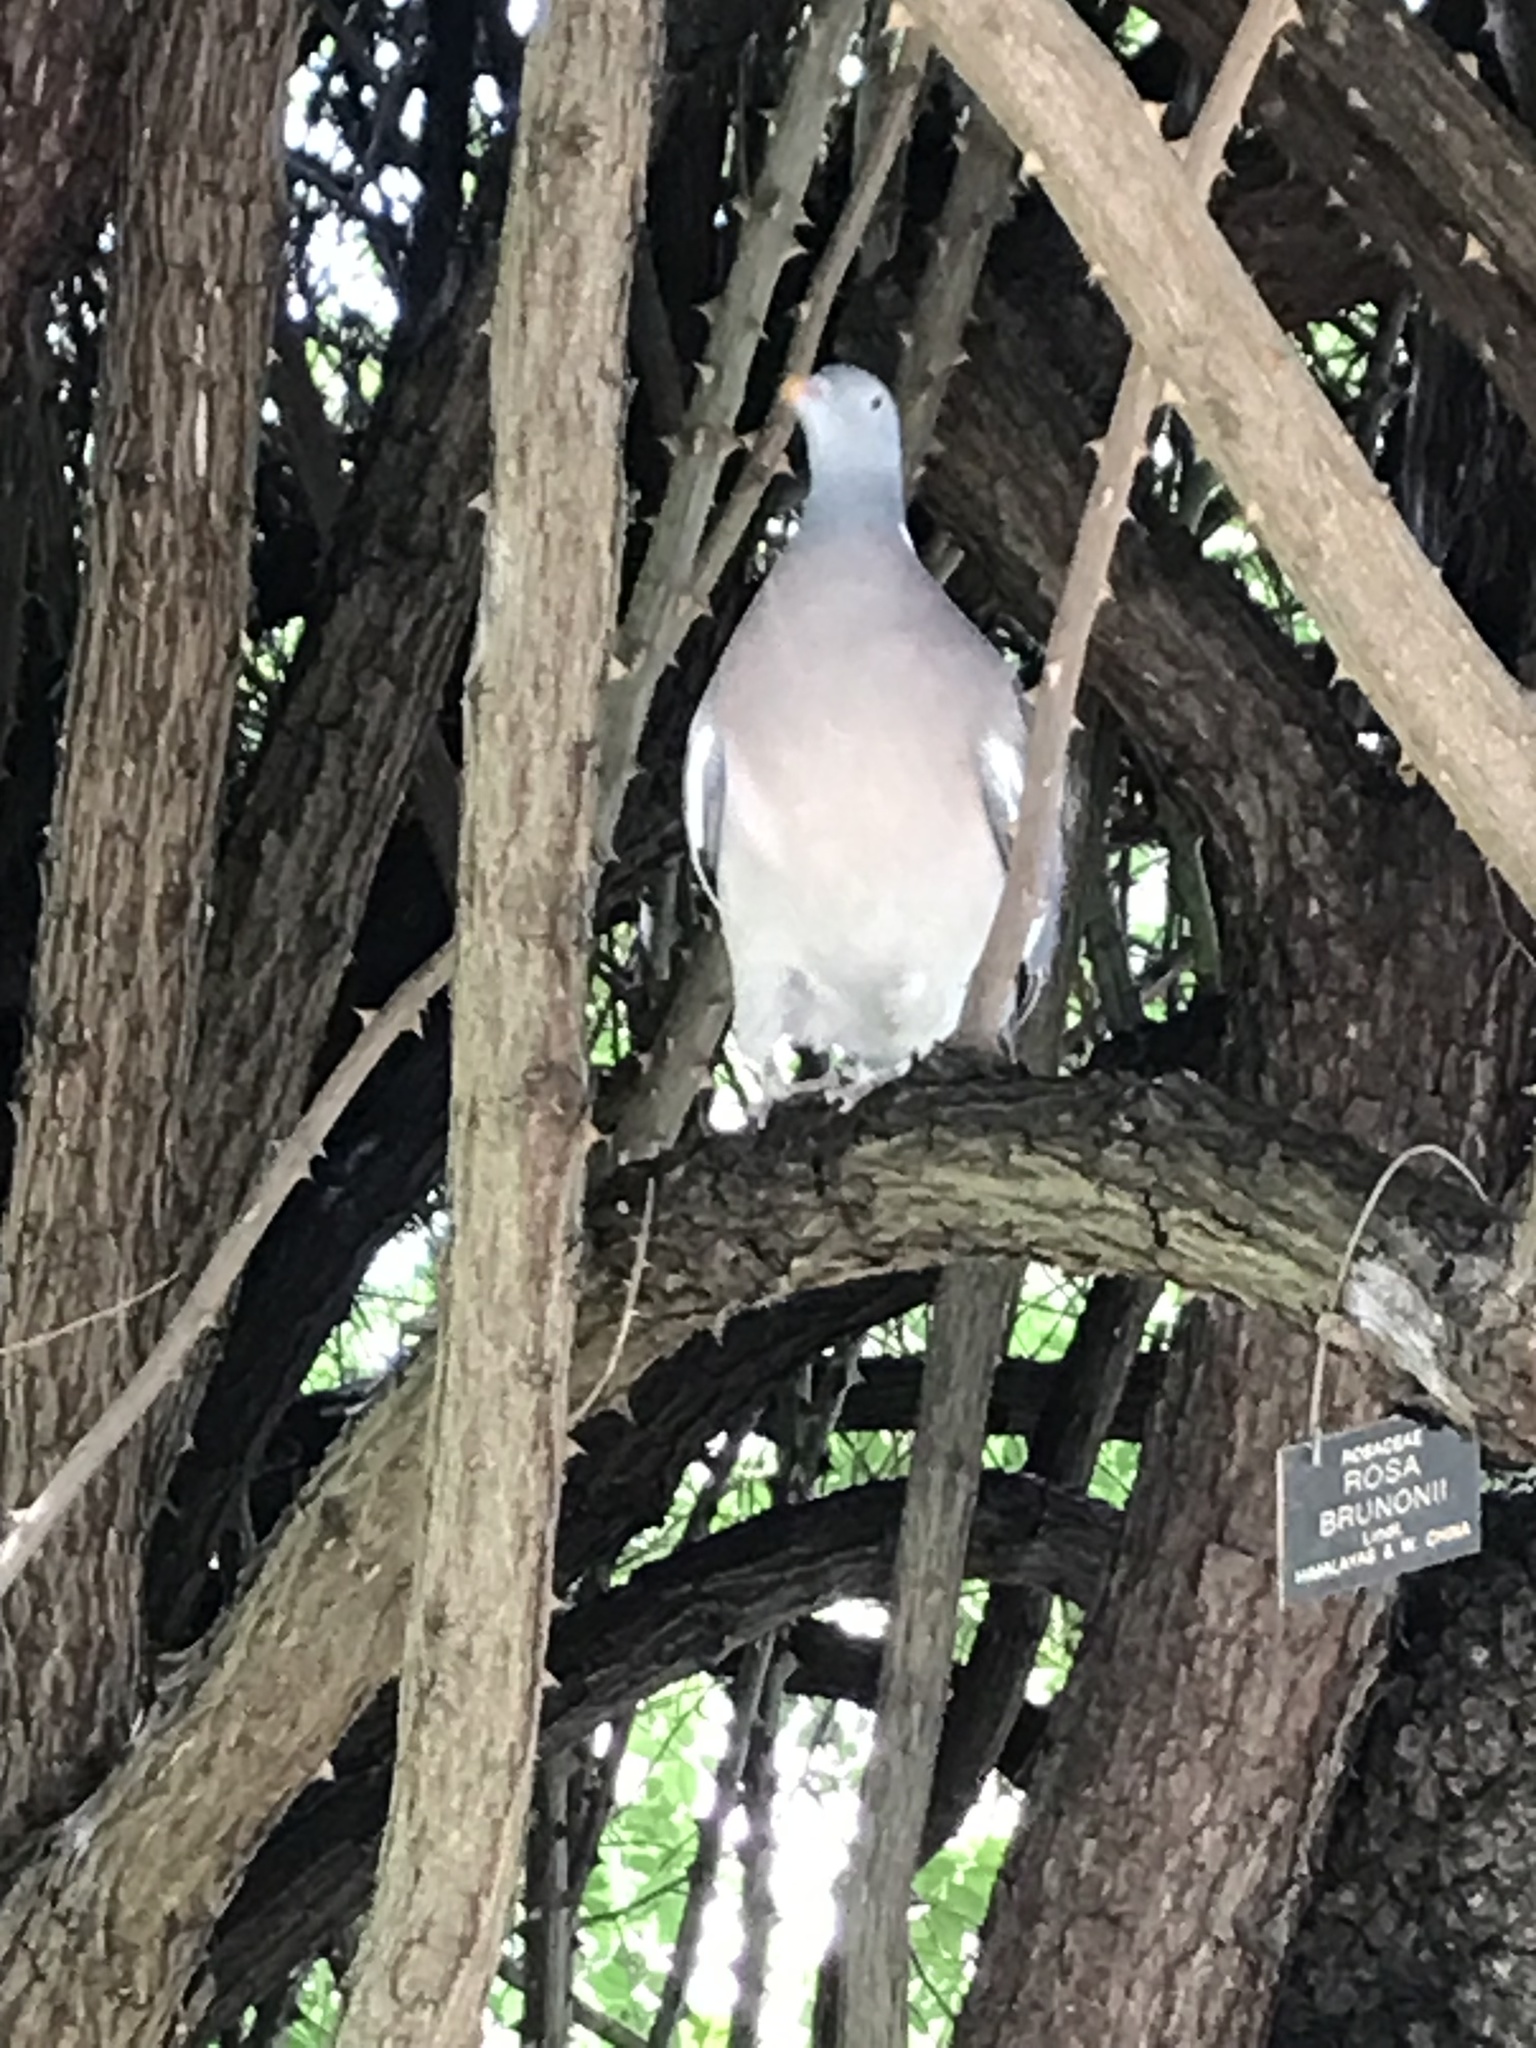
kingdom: Animalia
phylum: Chordata
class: Aves
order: Columbiformes
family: Columbidae
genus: Columba
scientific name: Columba palumbus
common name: Common wood pigeon
